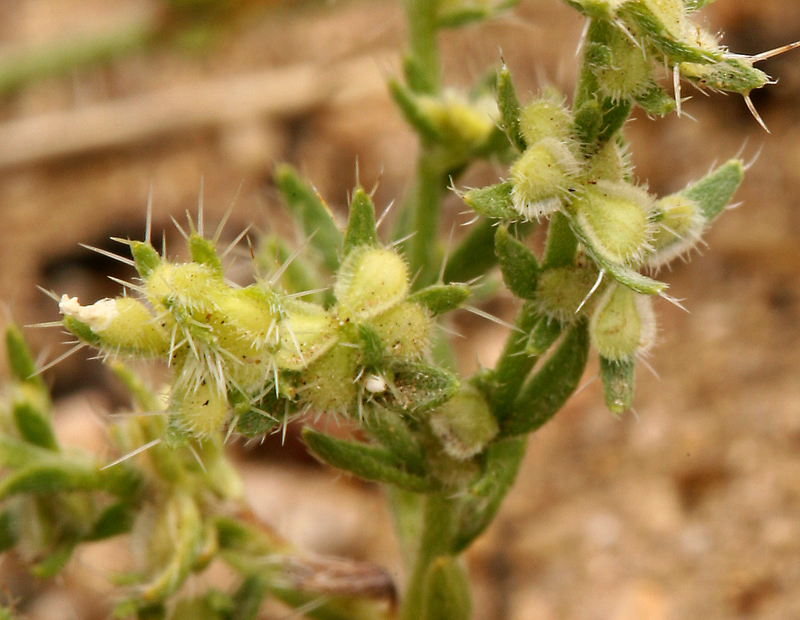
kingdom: Plantae
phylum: Tracheophyta
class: Magnoliopsida
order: Boraginales
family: Boraginaceae
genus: Pectocarya
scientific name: Pectocarya setosa
